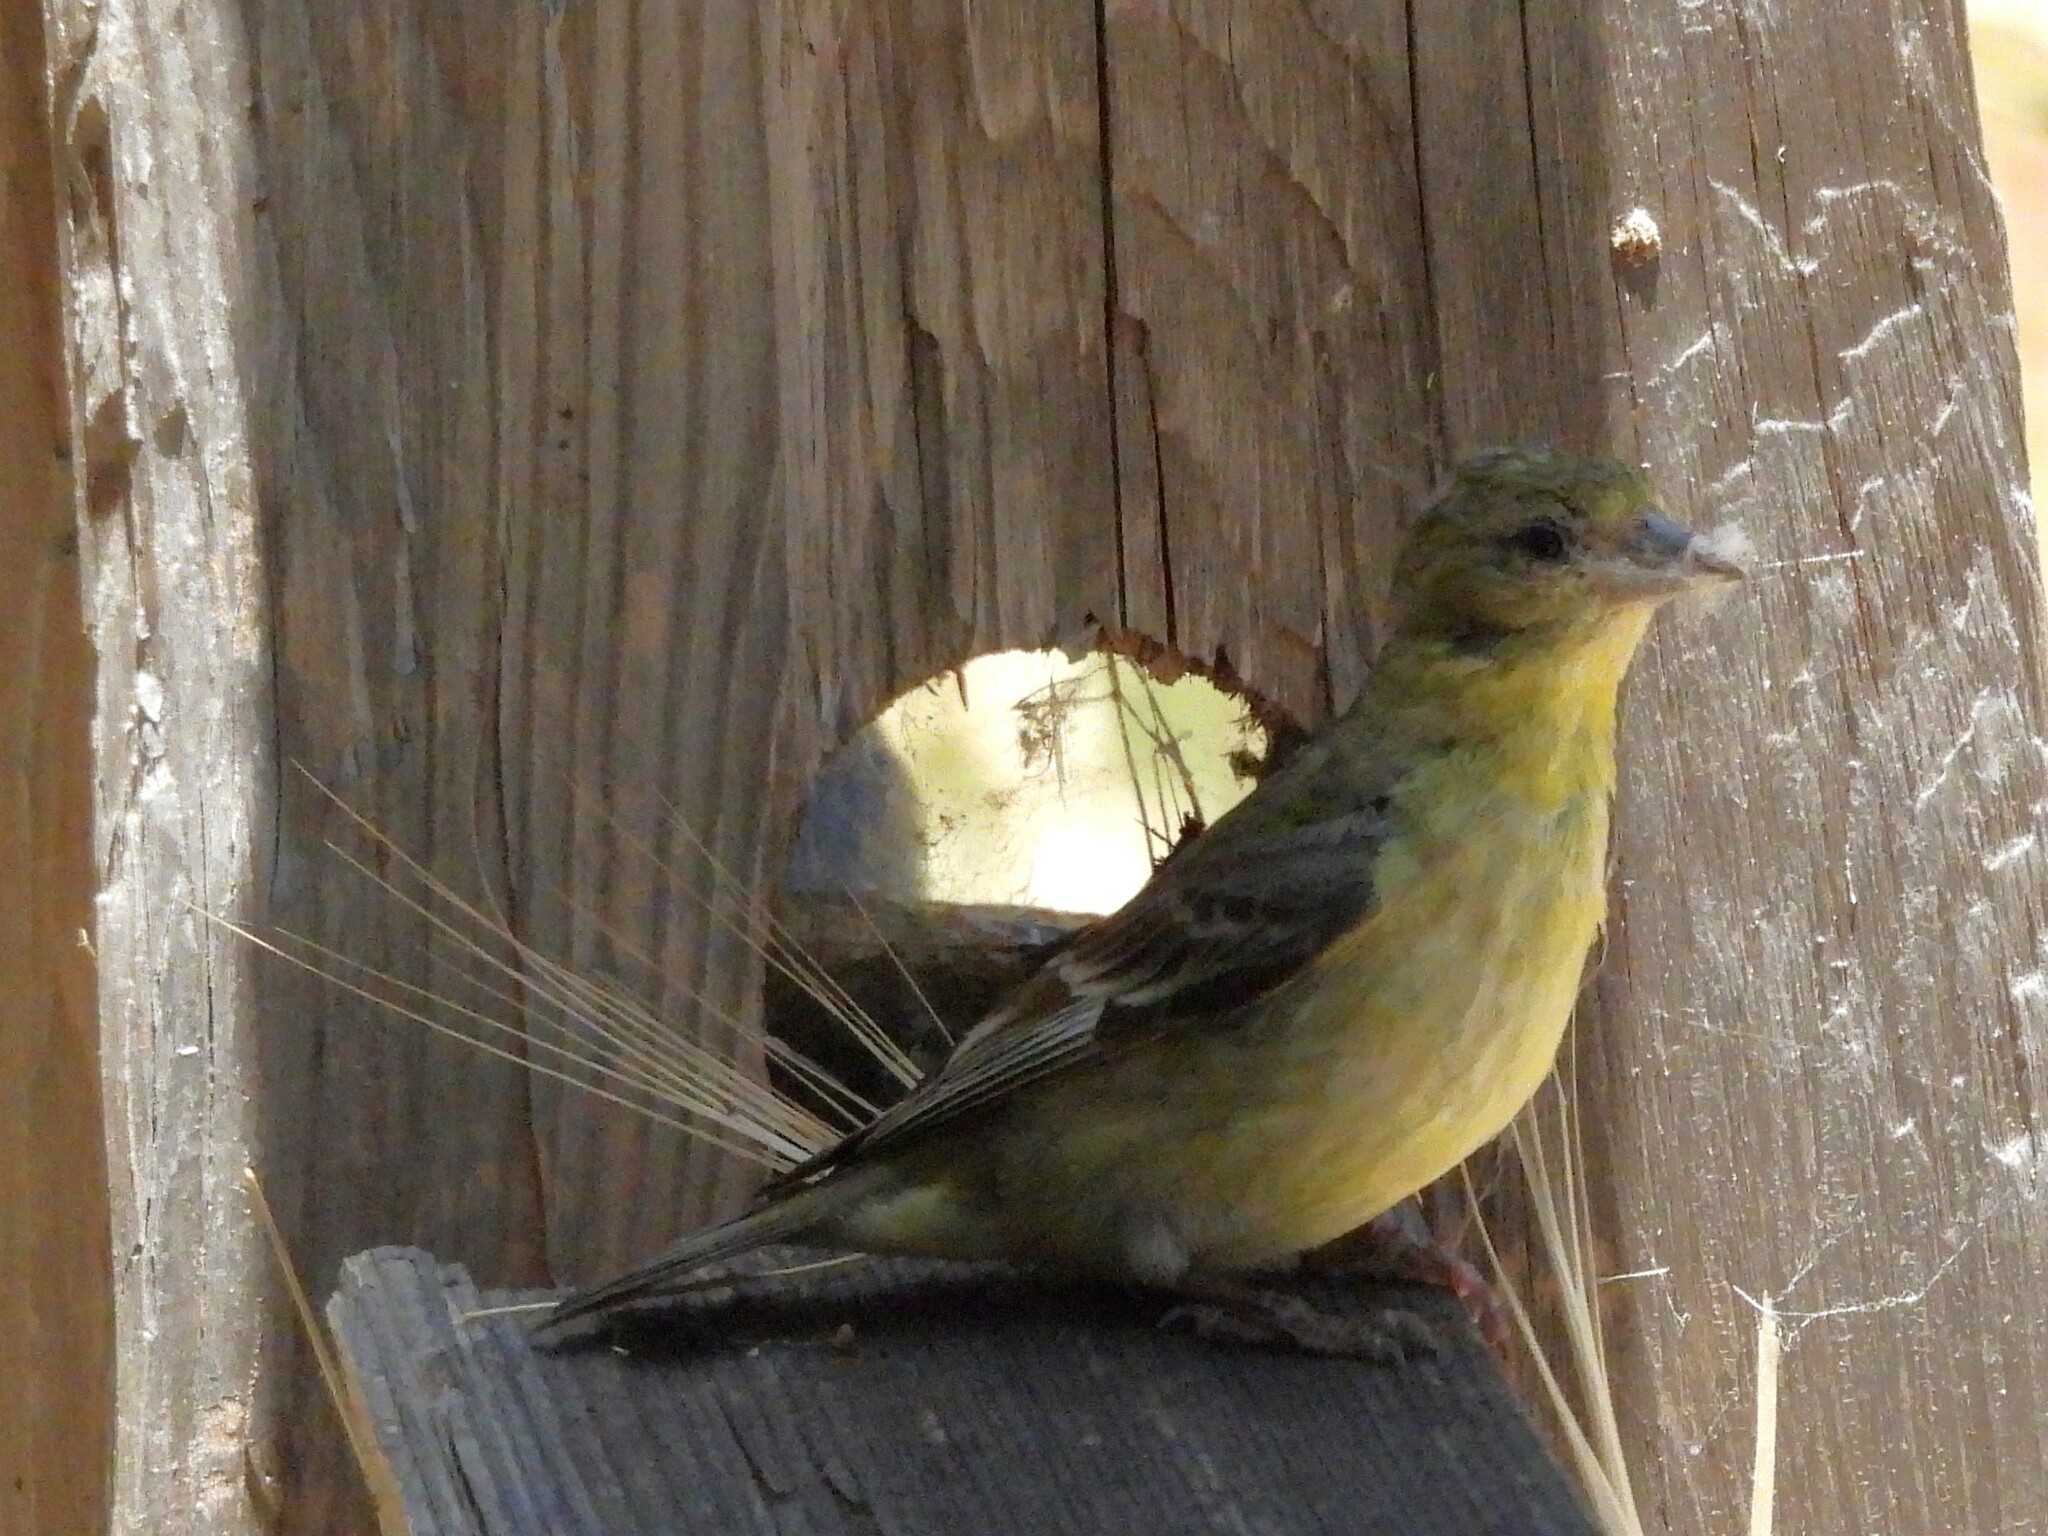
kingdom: Animalia
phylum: Chordata
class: Aves
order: Passeriformes
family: Fringillidae
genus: Spinus
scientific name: Spinus psaltria
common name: Lesser goldfinch
